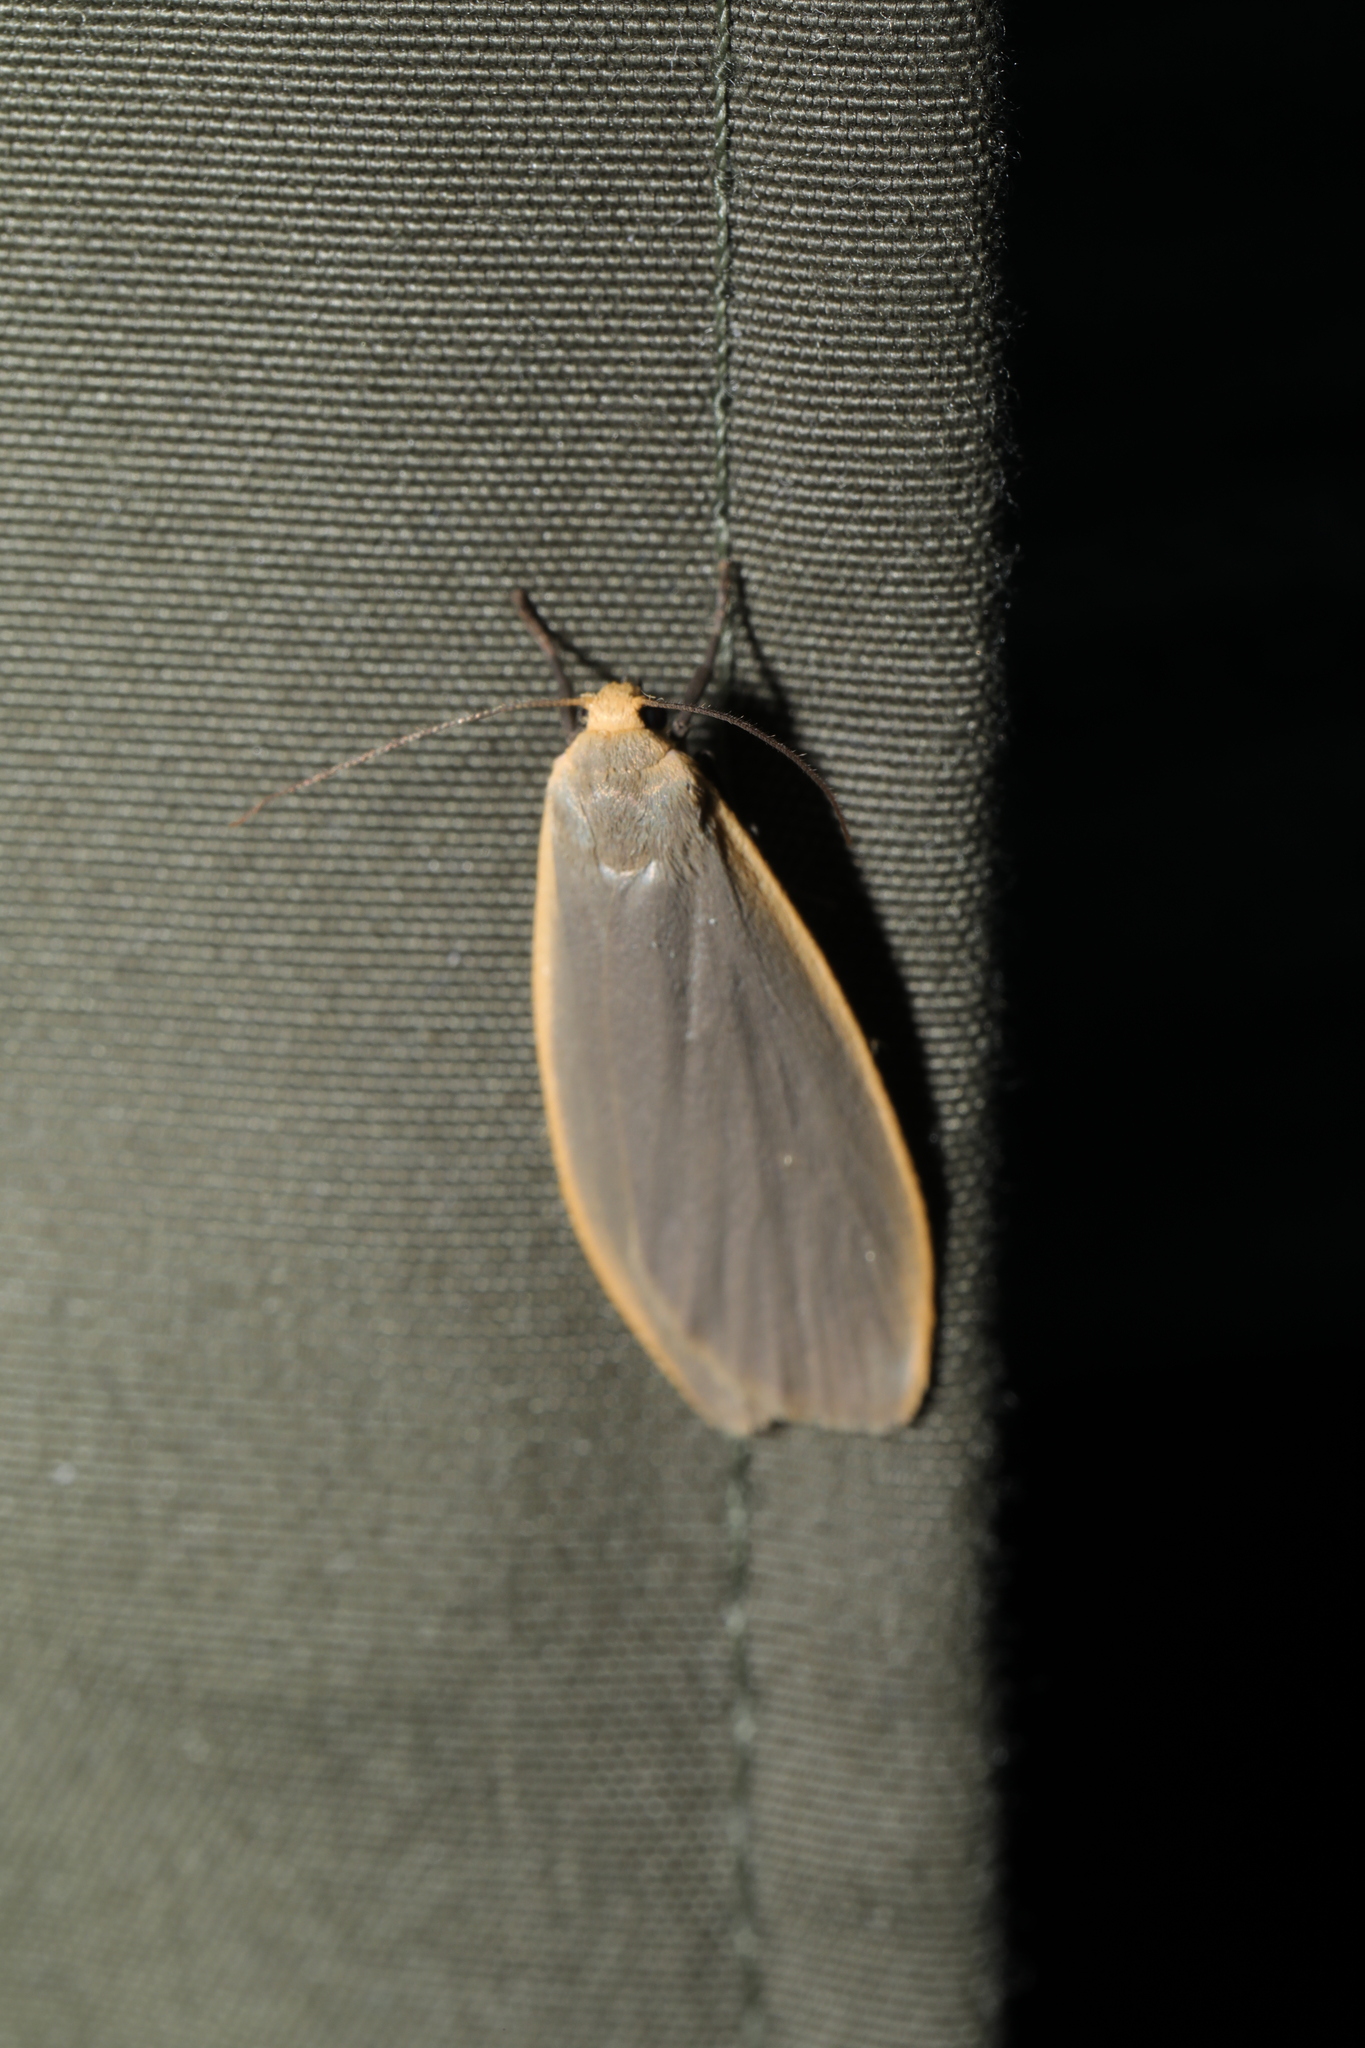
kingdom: Animalia
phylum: Arthropoda
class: Insecta
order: Lepidoptera
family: Erebidae
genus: Collita
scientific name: Collita griseola
